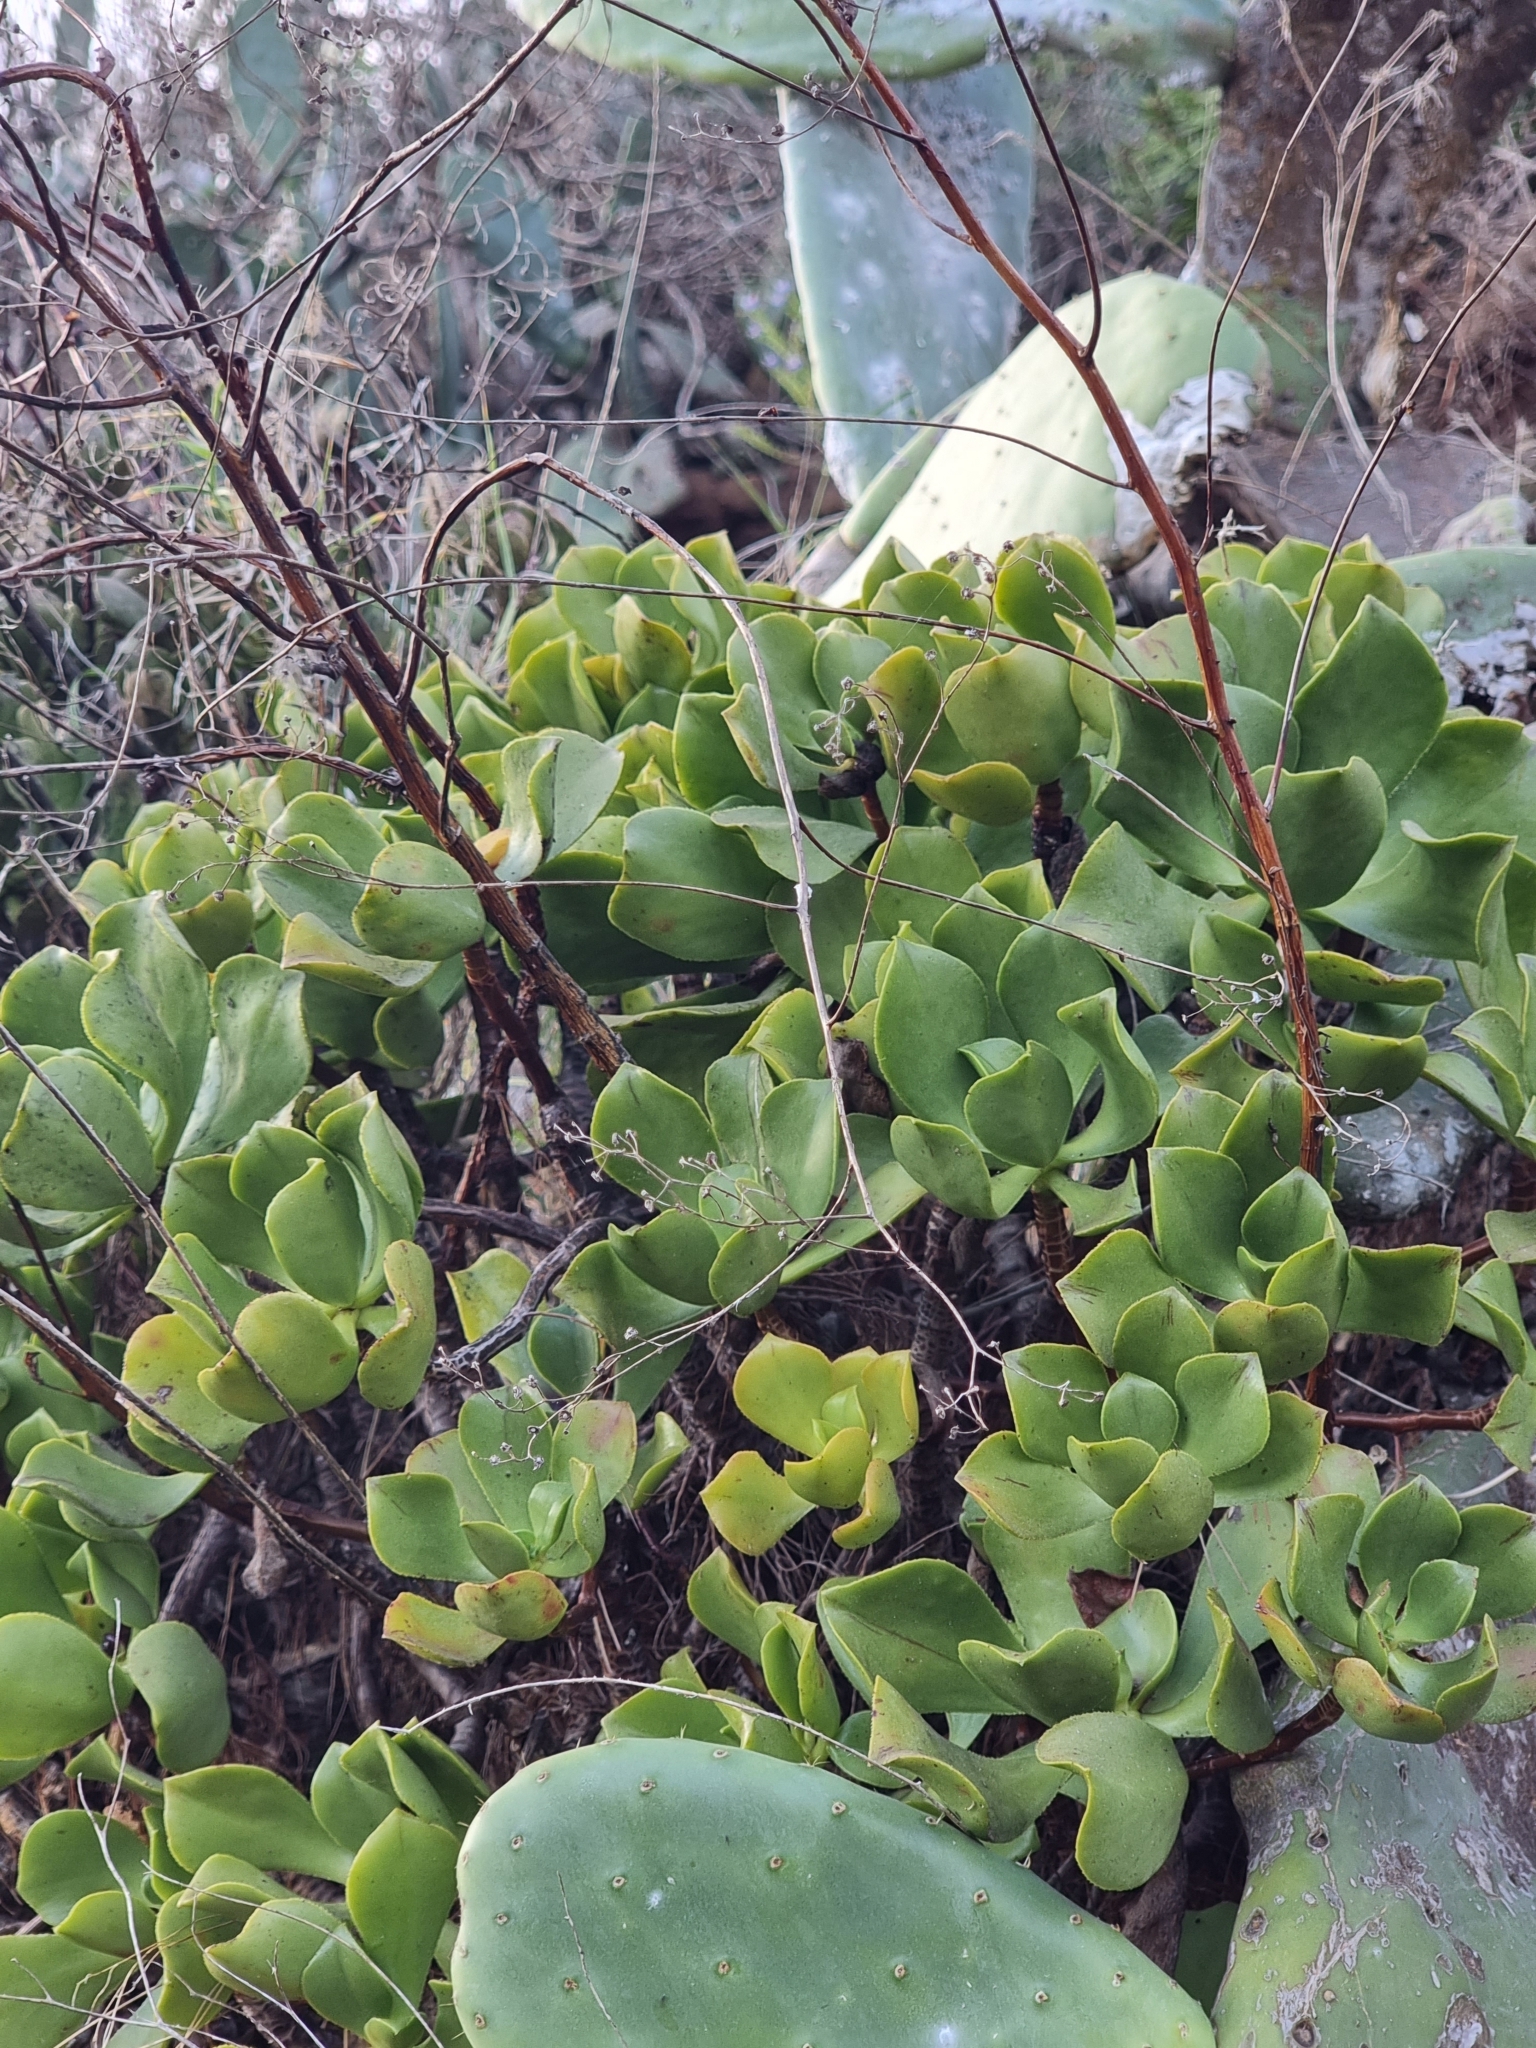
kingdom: Plantae
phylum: Tracheophyta
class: Magnoliopsida
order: Saxifragales
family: Crassulaceae
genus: Aeonium
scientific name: Aeonium glutinosum
